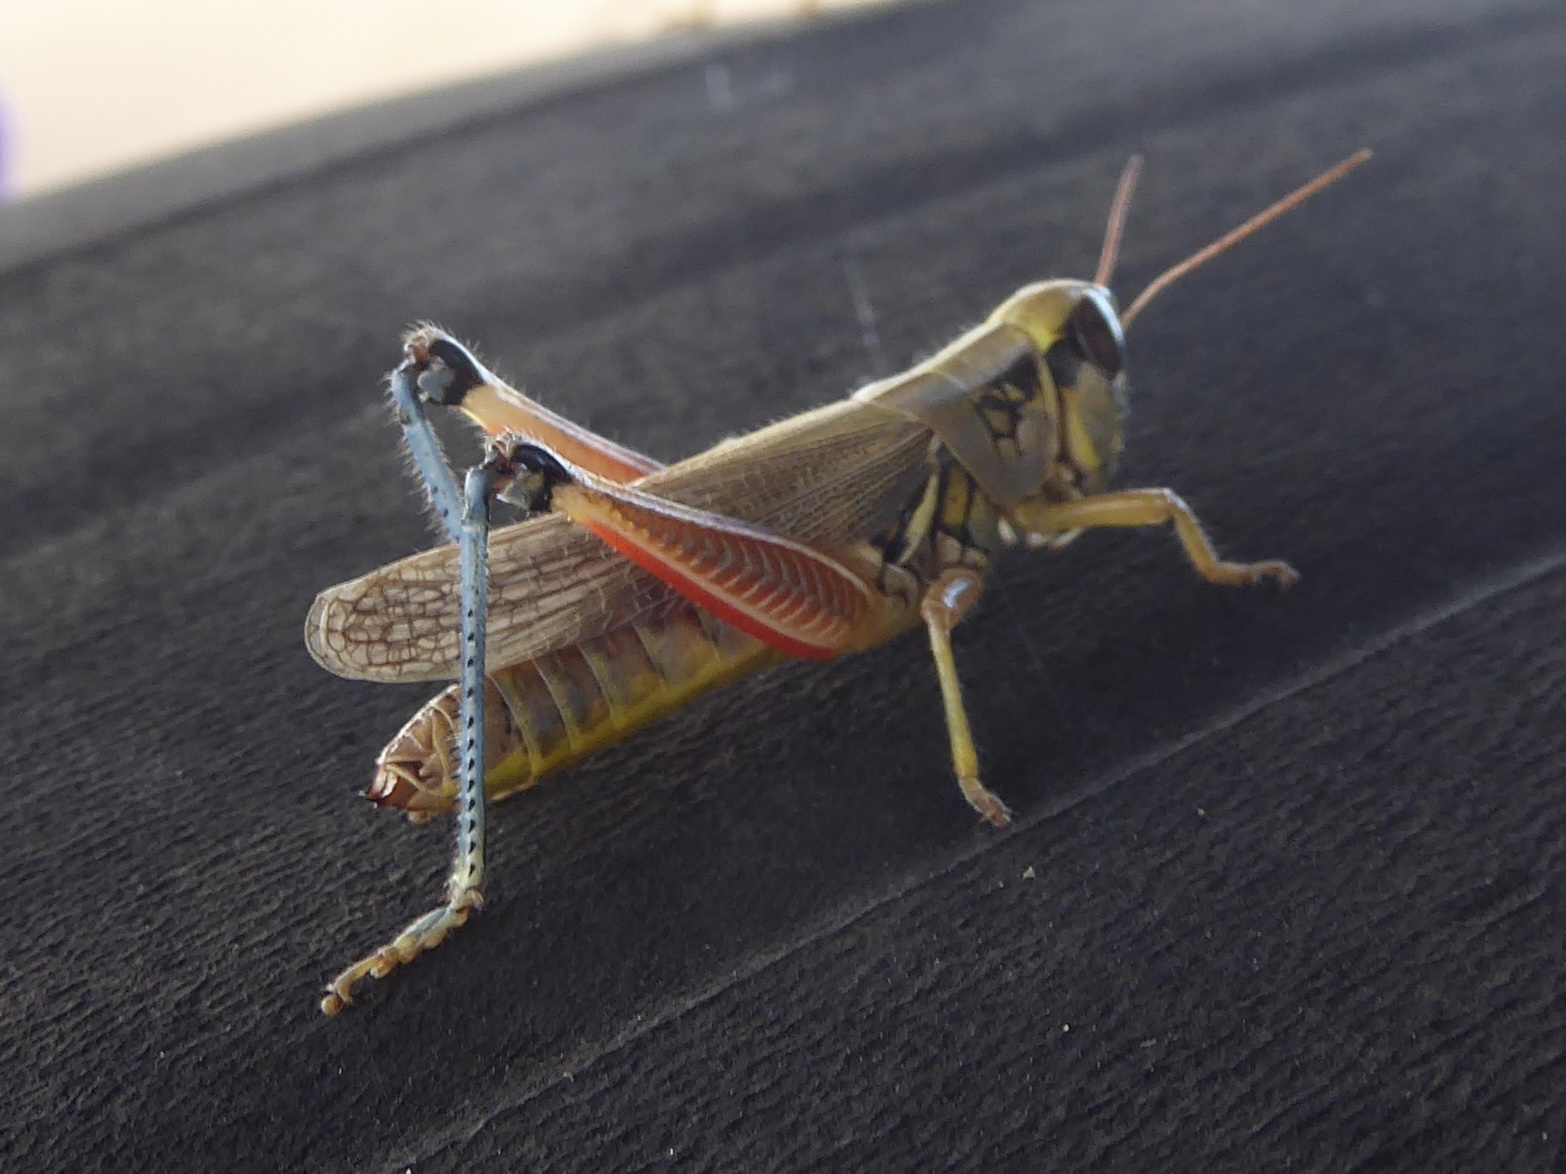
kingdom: Animalia
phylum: Arthropoda
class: Insecta
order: Orthoptera
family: Acrididae
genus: Phoetaliotes
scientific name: Phoetaliotes nebrascensis
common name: Large-headed grasshopper
